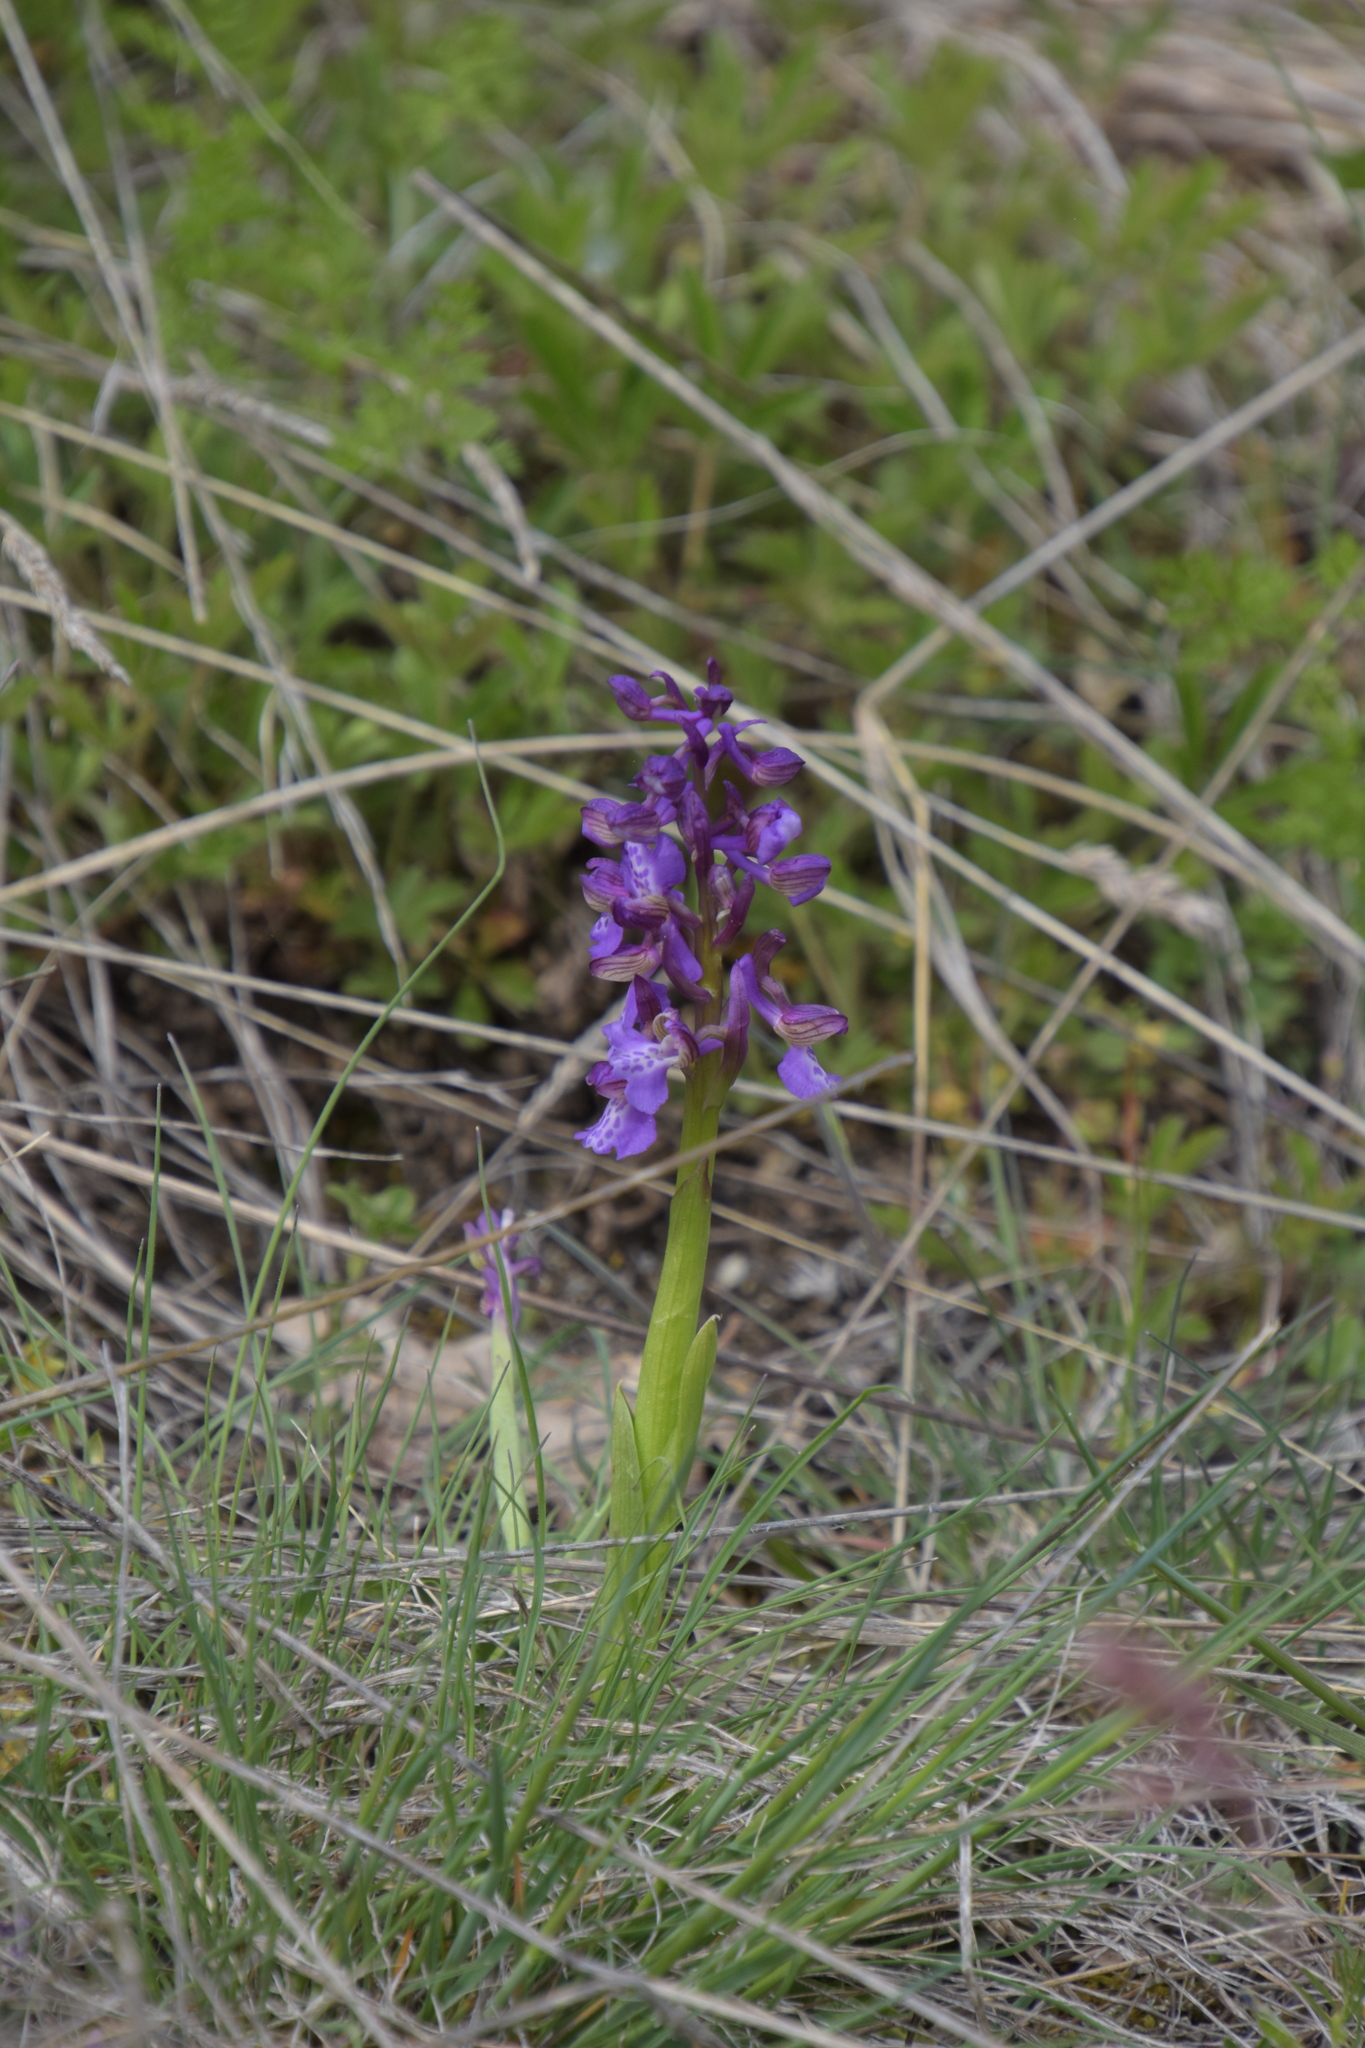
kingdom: Plantae
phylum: Tracheophyta
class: Liliopsida
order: Asparagales
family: Orchidaceae
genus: Anacamptis
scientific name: Anacamptis morio
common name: Green-winged orchid
